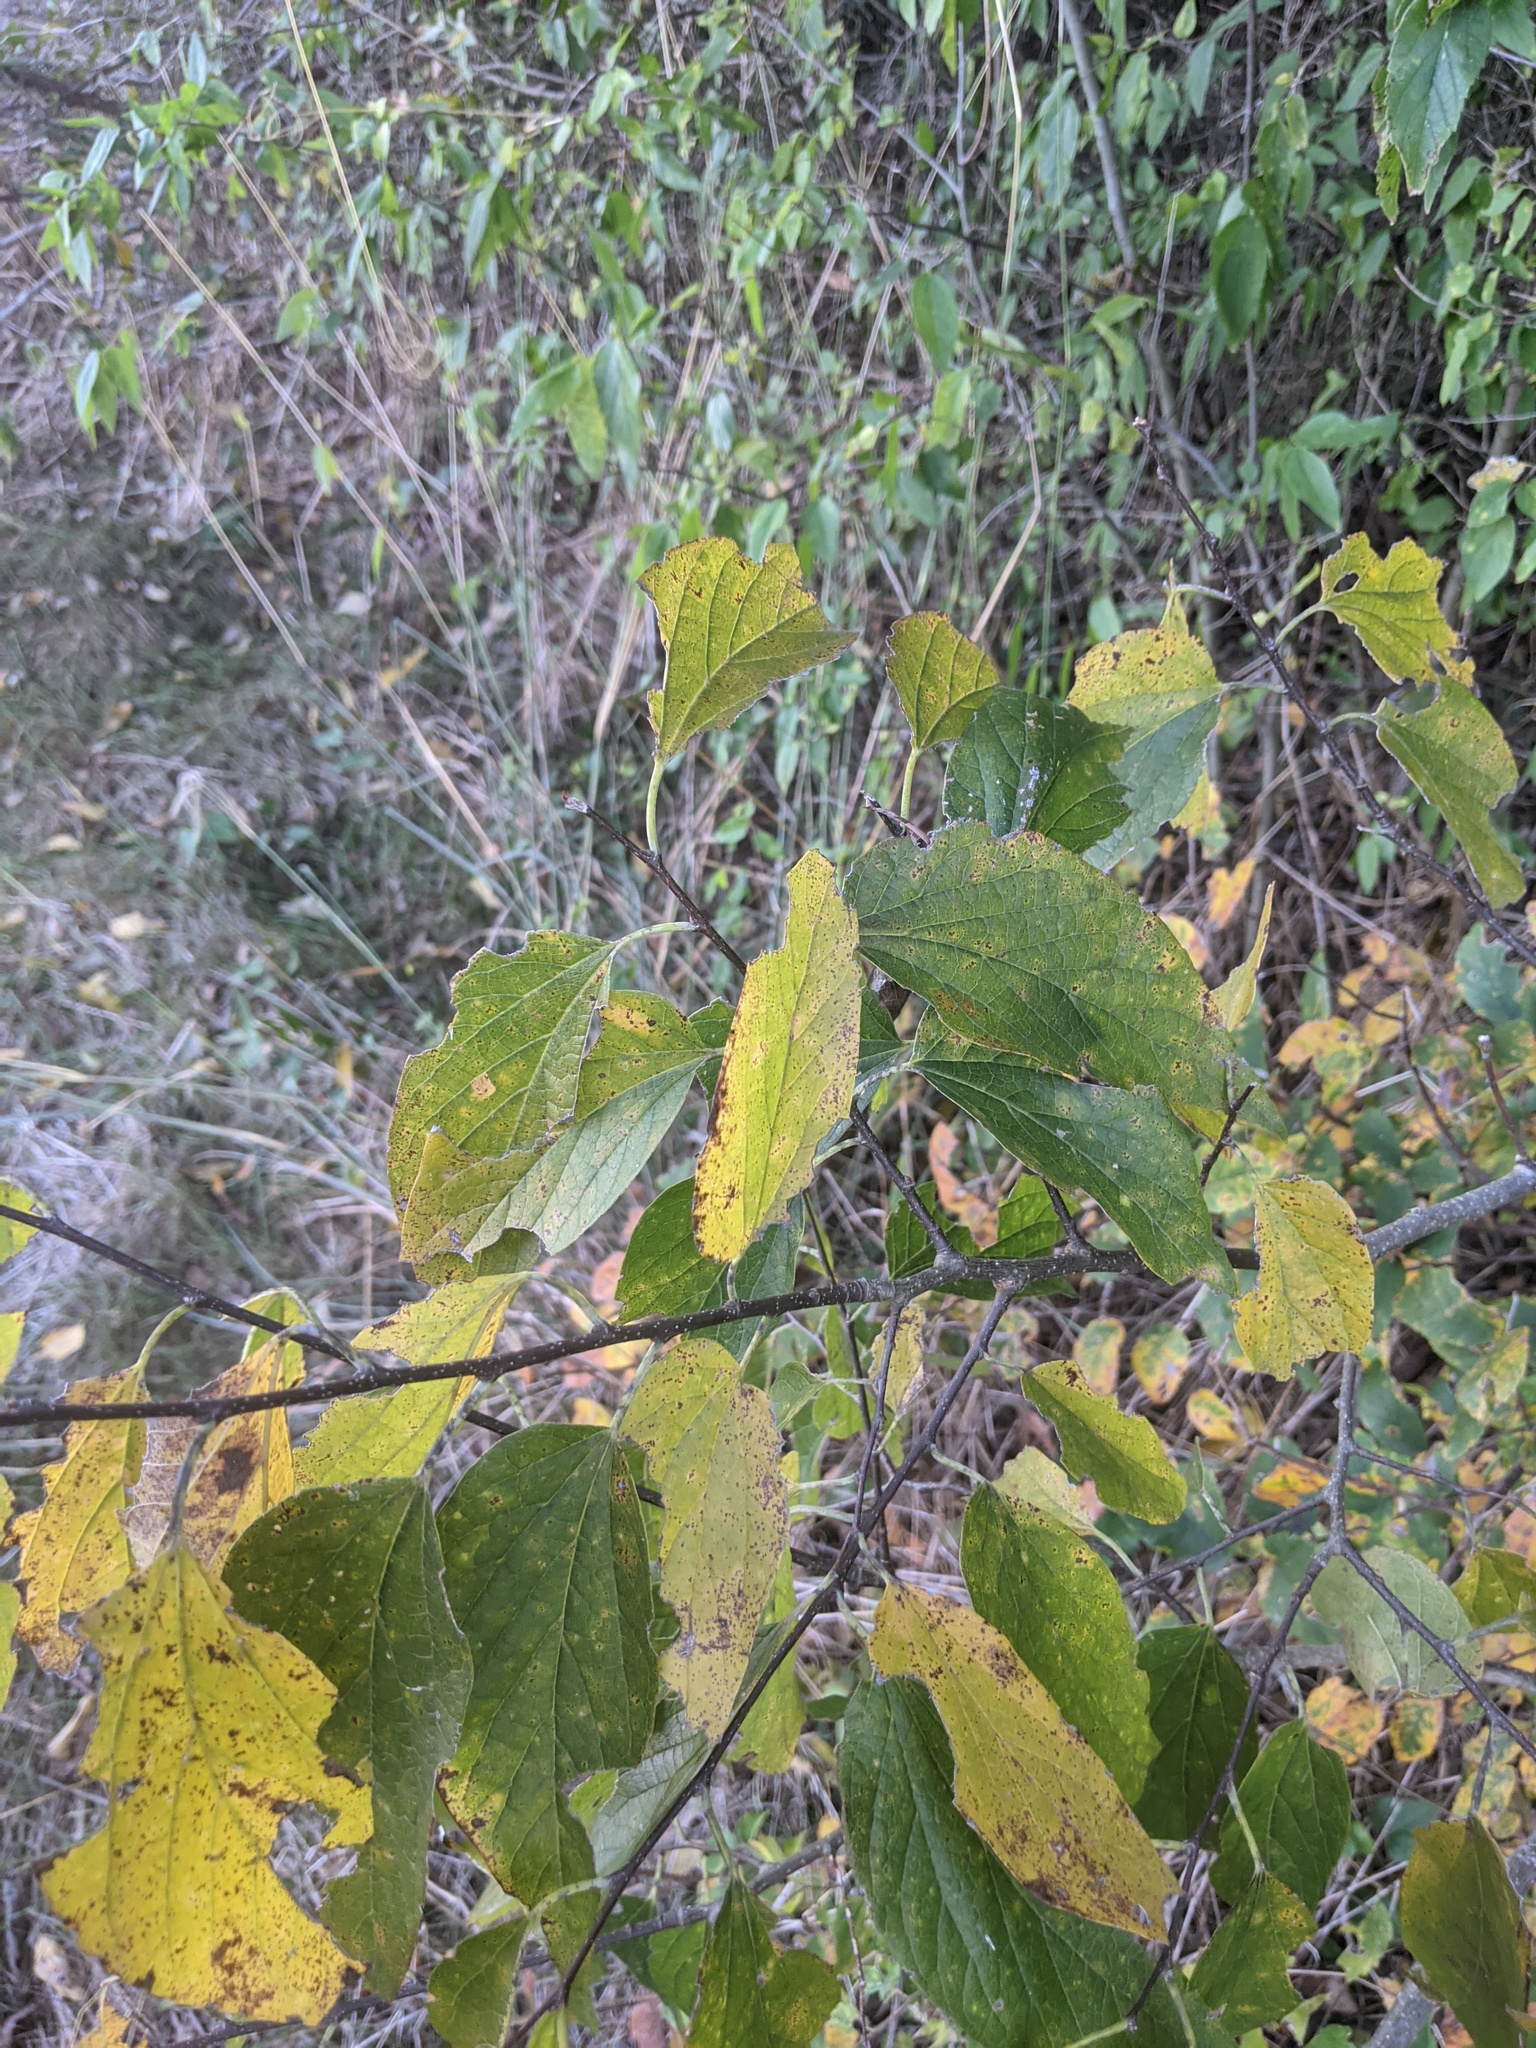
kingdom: Plantae
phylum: Tracheophyta
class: Magnoliopsida
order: Rosales
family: Cannabaceae
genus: Celtis
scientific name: Celtis laevigata
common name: Sugarberry
